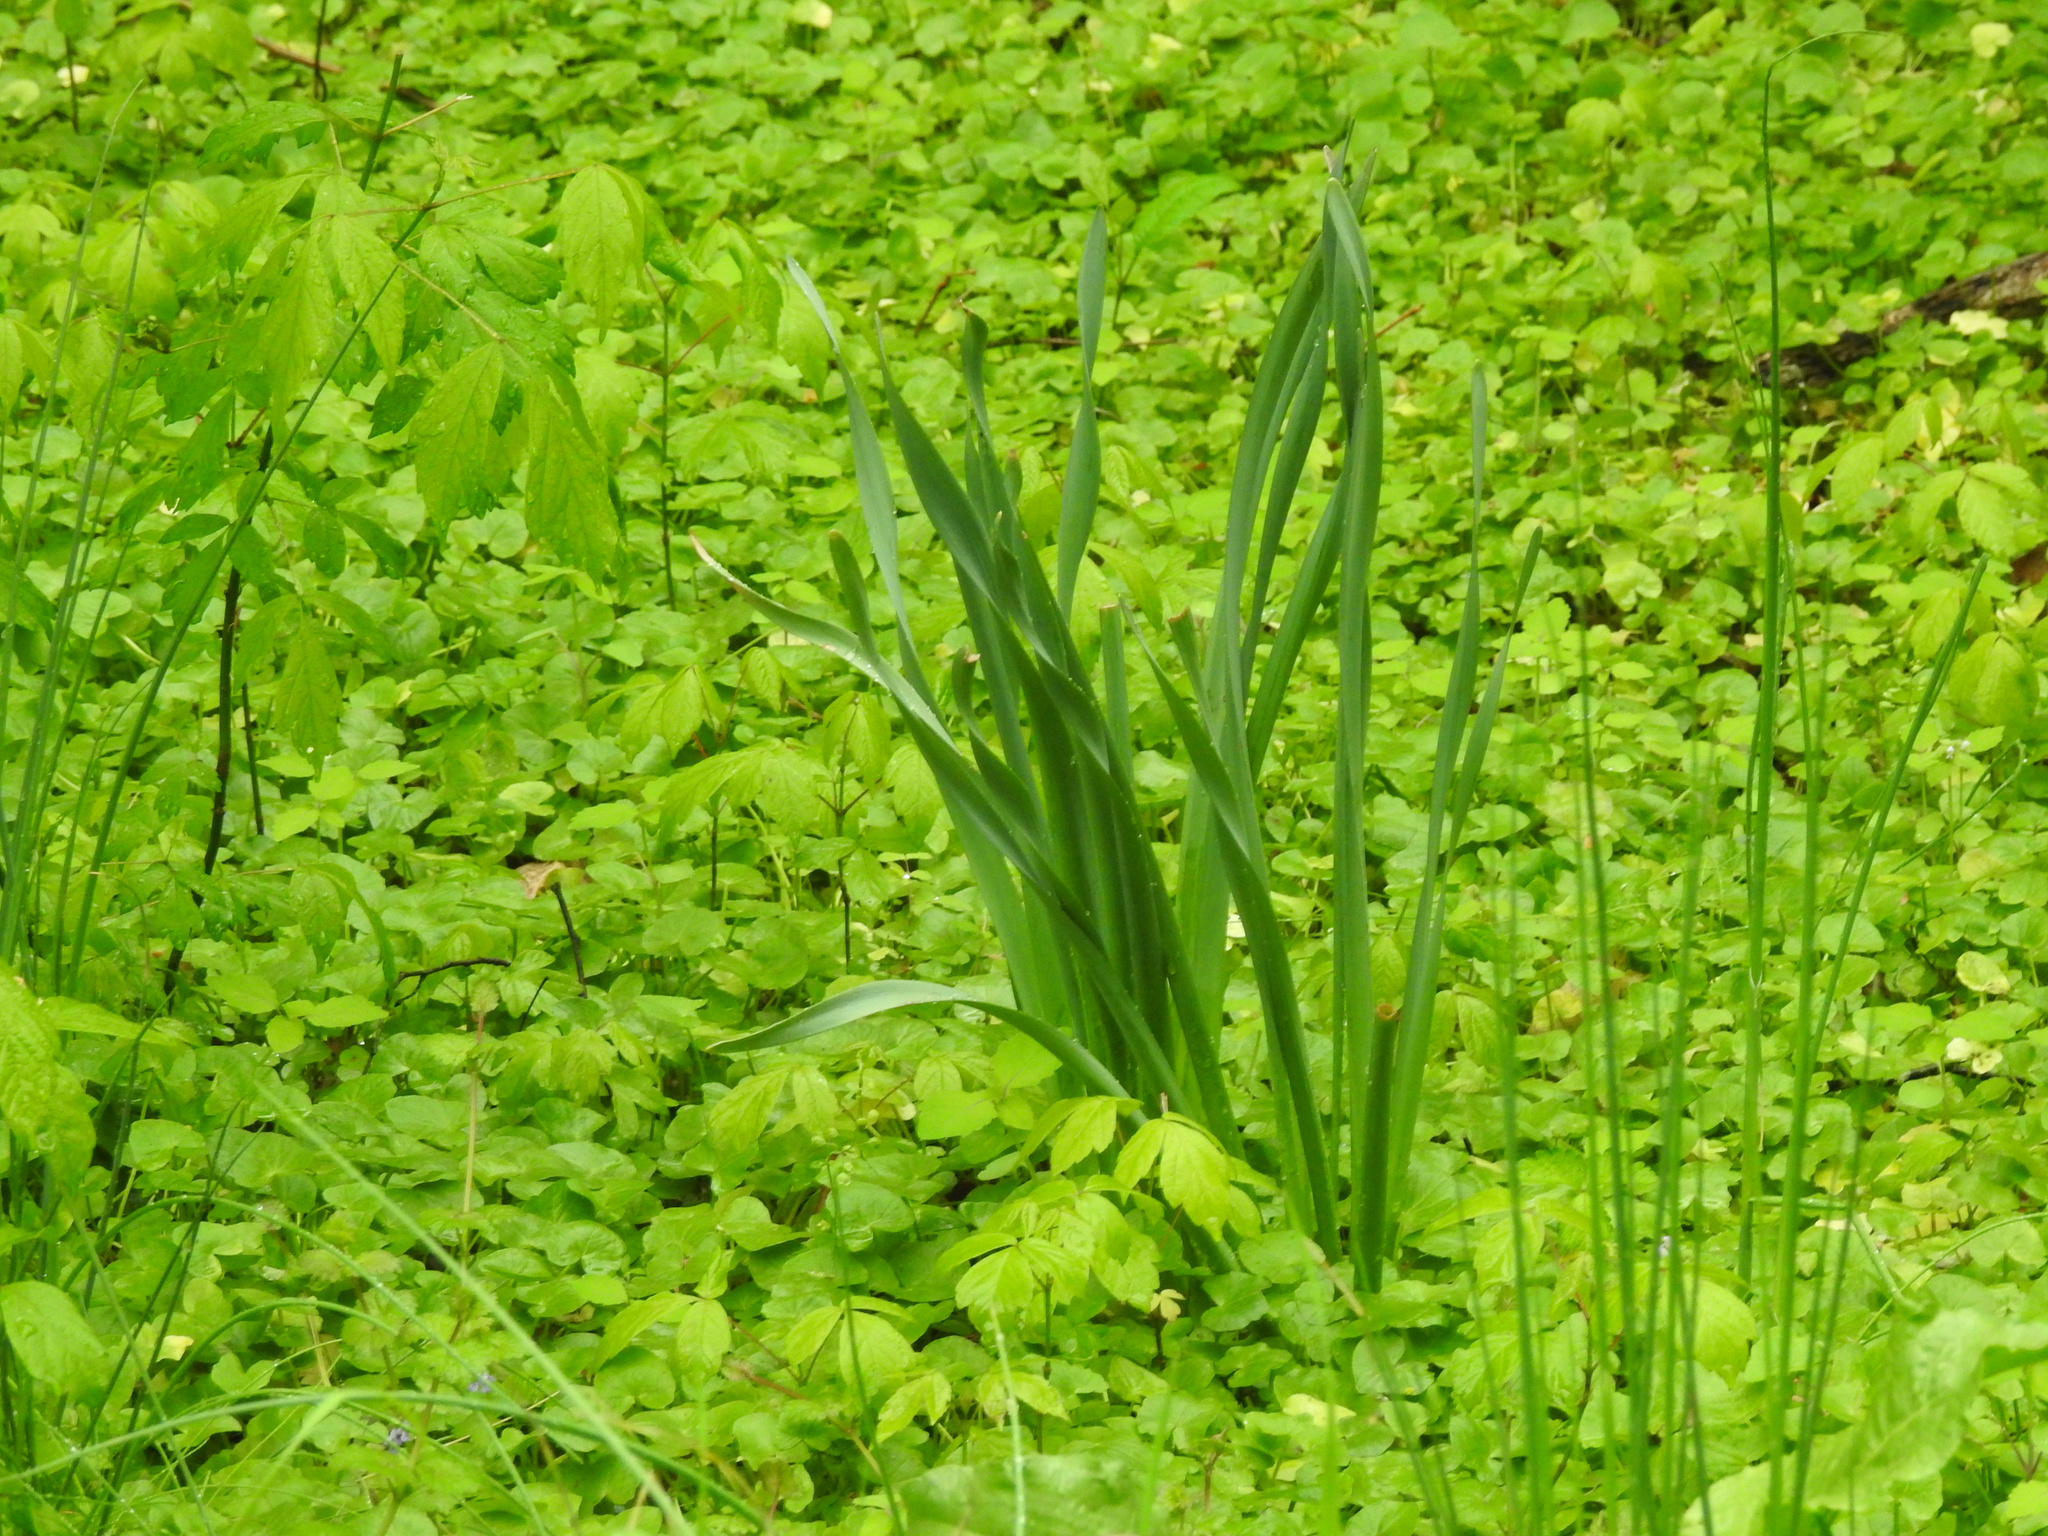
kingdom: Plantae
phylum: Tracheophyta
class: Liliopsida
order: Asparagales
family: Amaryllidaceae
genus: Narcissus
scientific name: Narcissus
